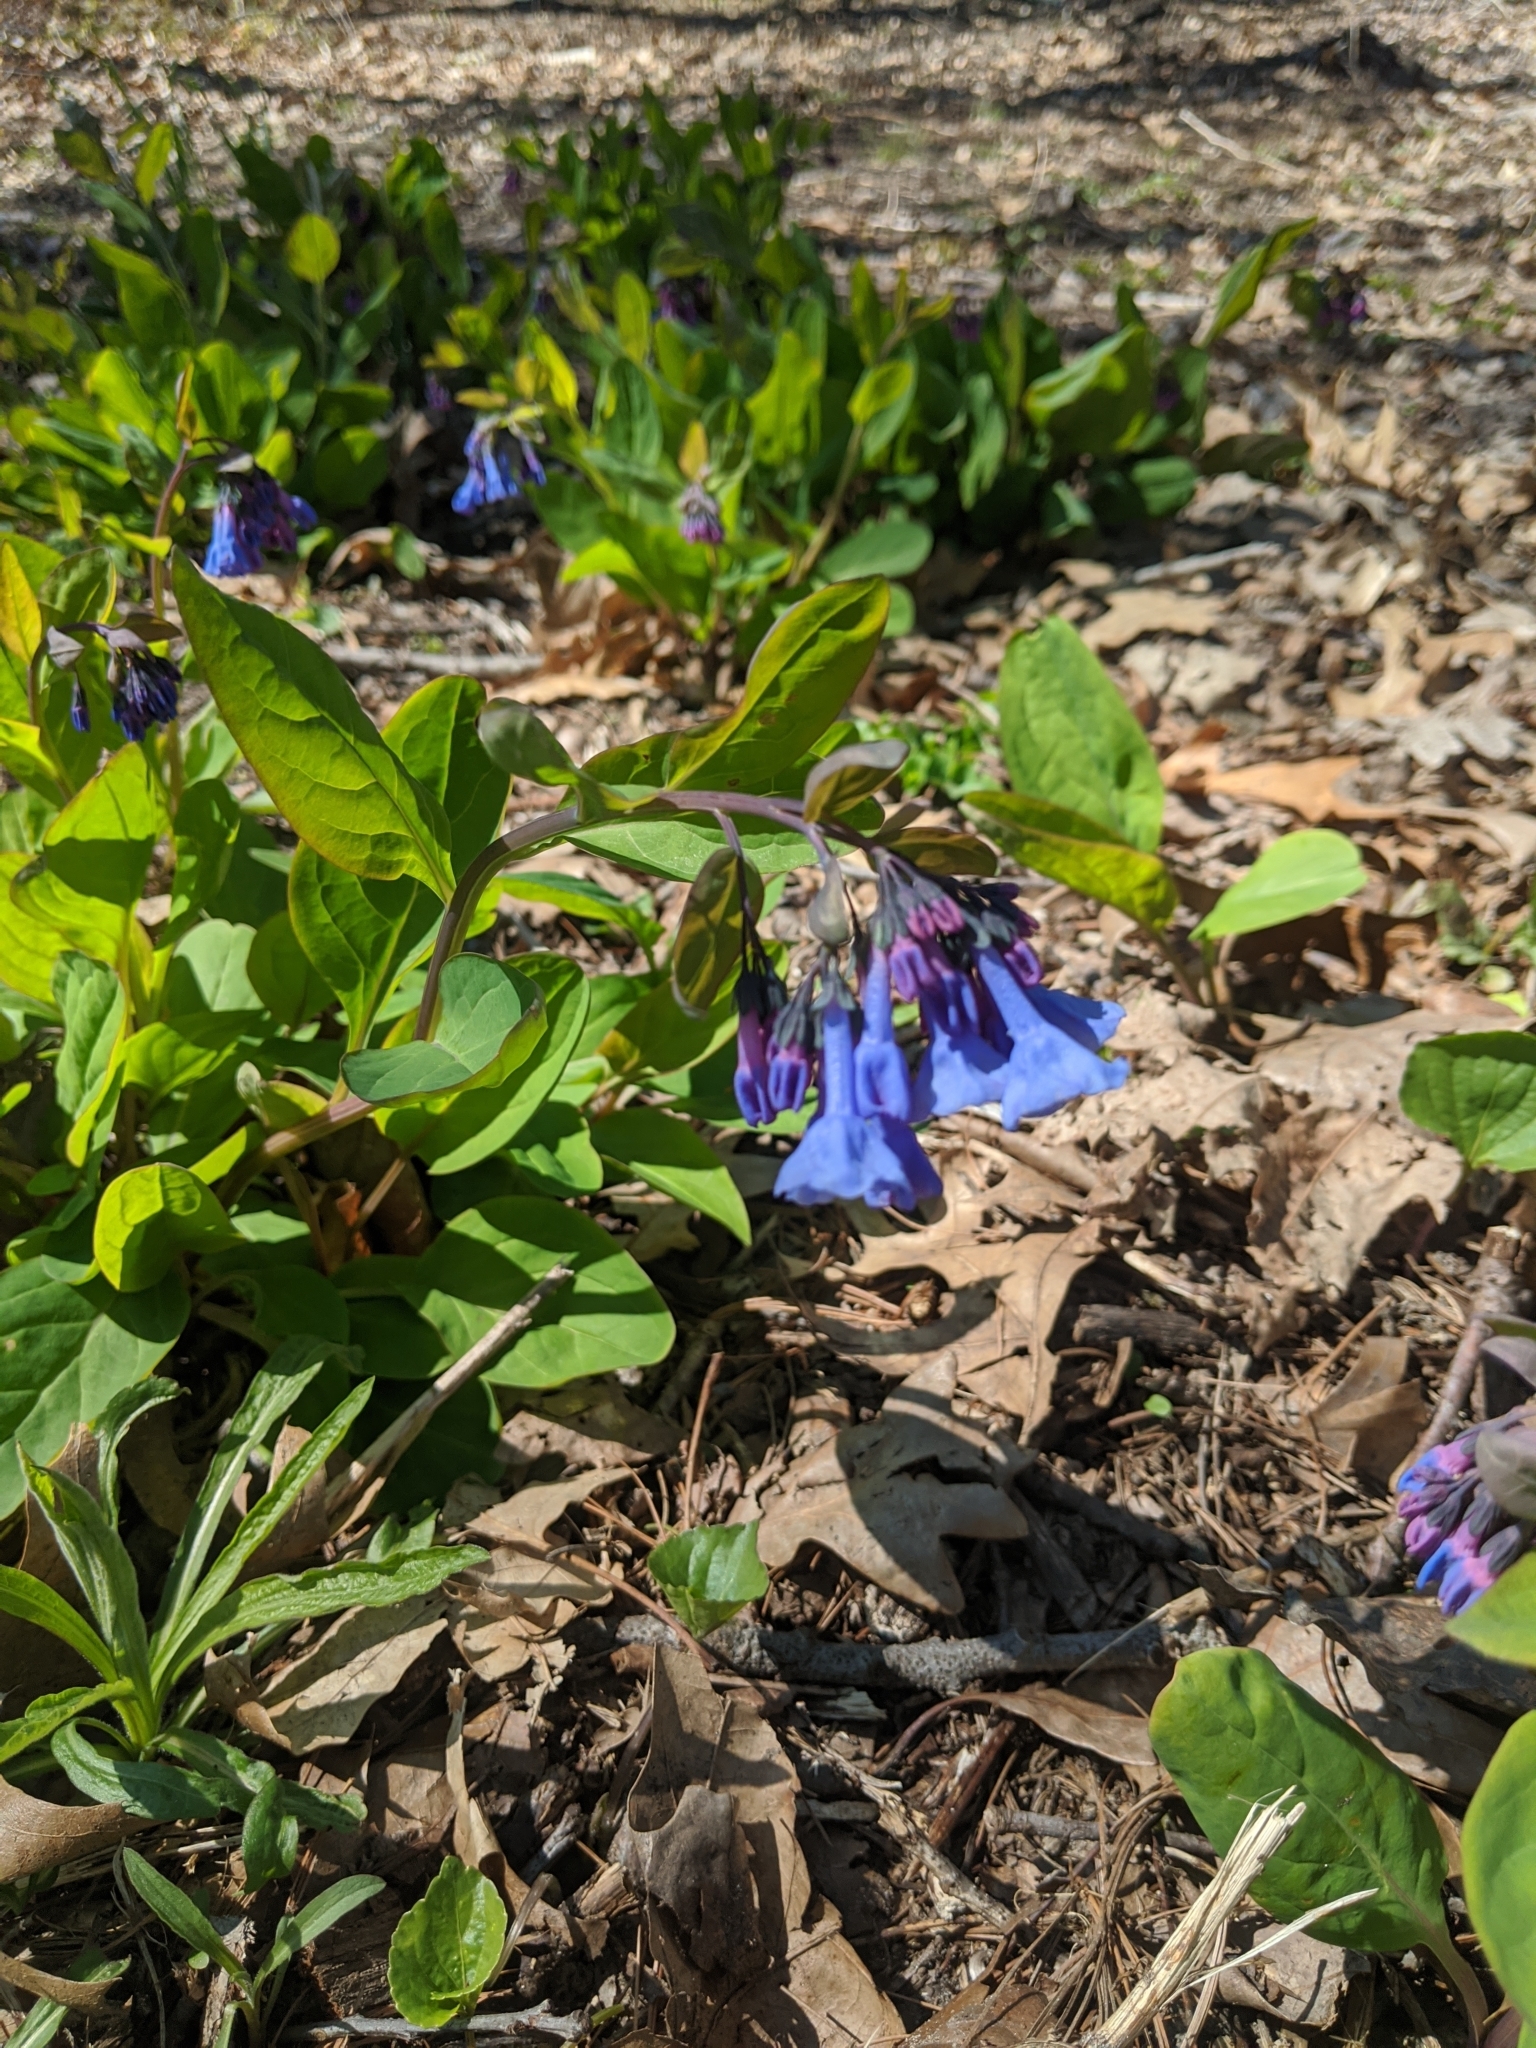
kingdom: Plantae
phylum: Tracheophyta
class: Magnoliopsida
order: Boraginales
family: Boraginaceae
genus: Mertensia
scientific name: Mertensia virginica
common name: Virginia bluebells
